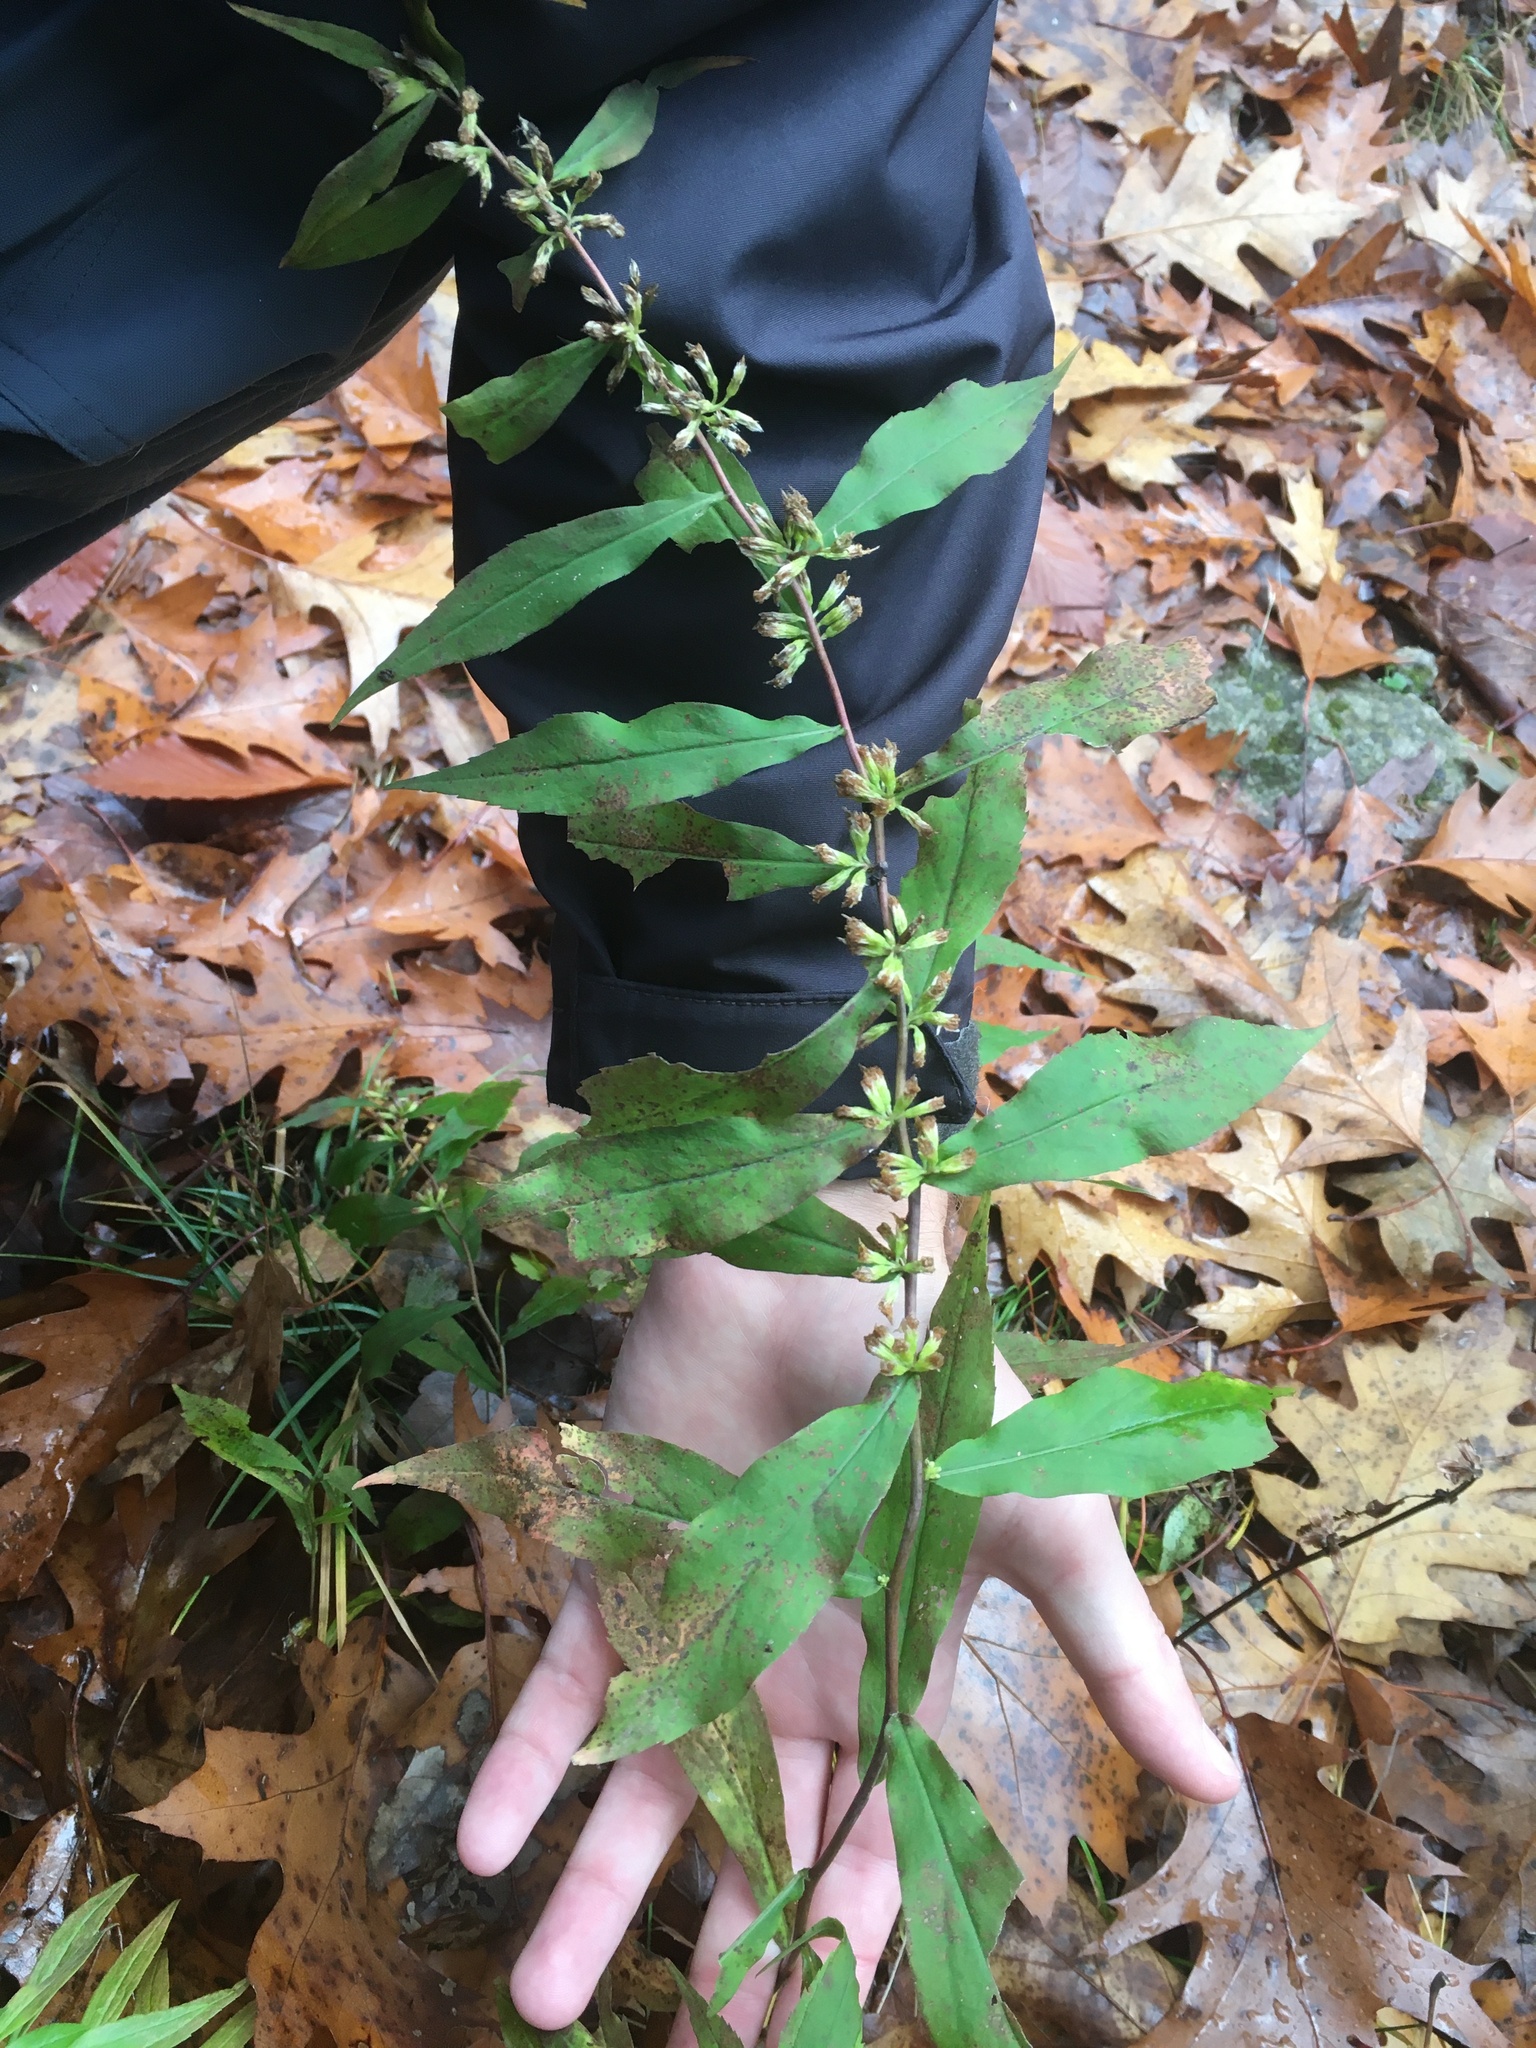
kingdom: Plantae
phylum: Tracheophyta
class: Magnoliopsida
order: Asterales
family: Asteraceae
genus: Solidago
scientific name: Solidago caesia
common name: Woodland goldenrod
